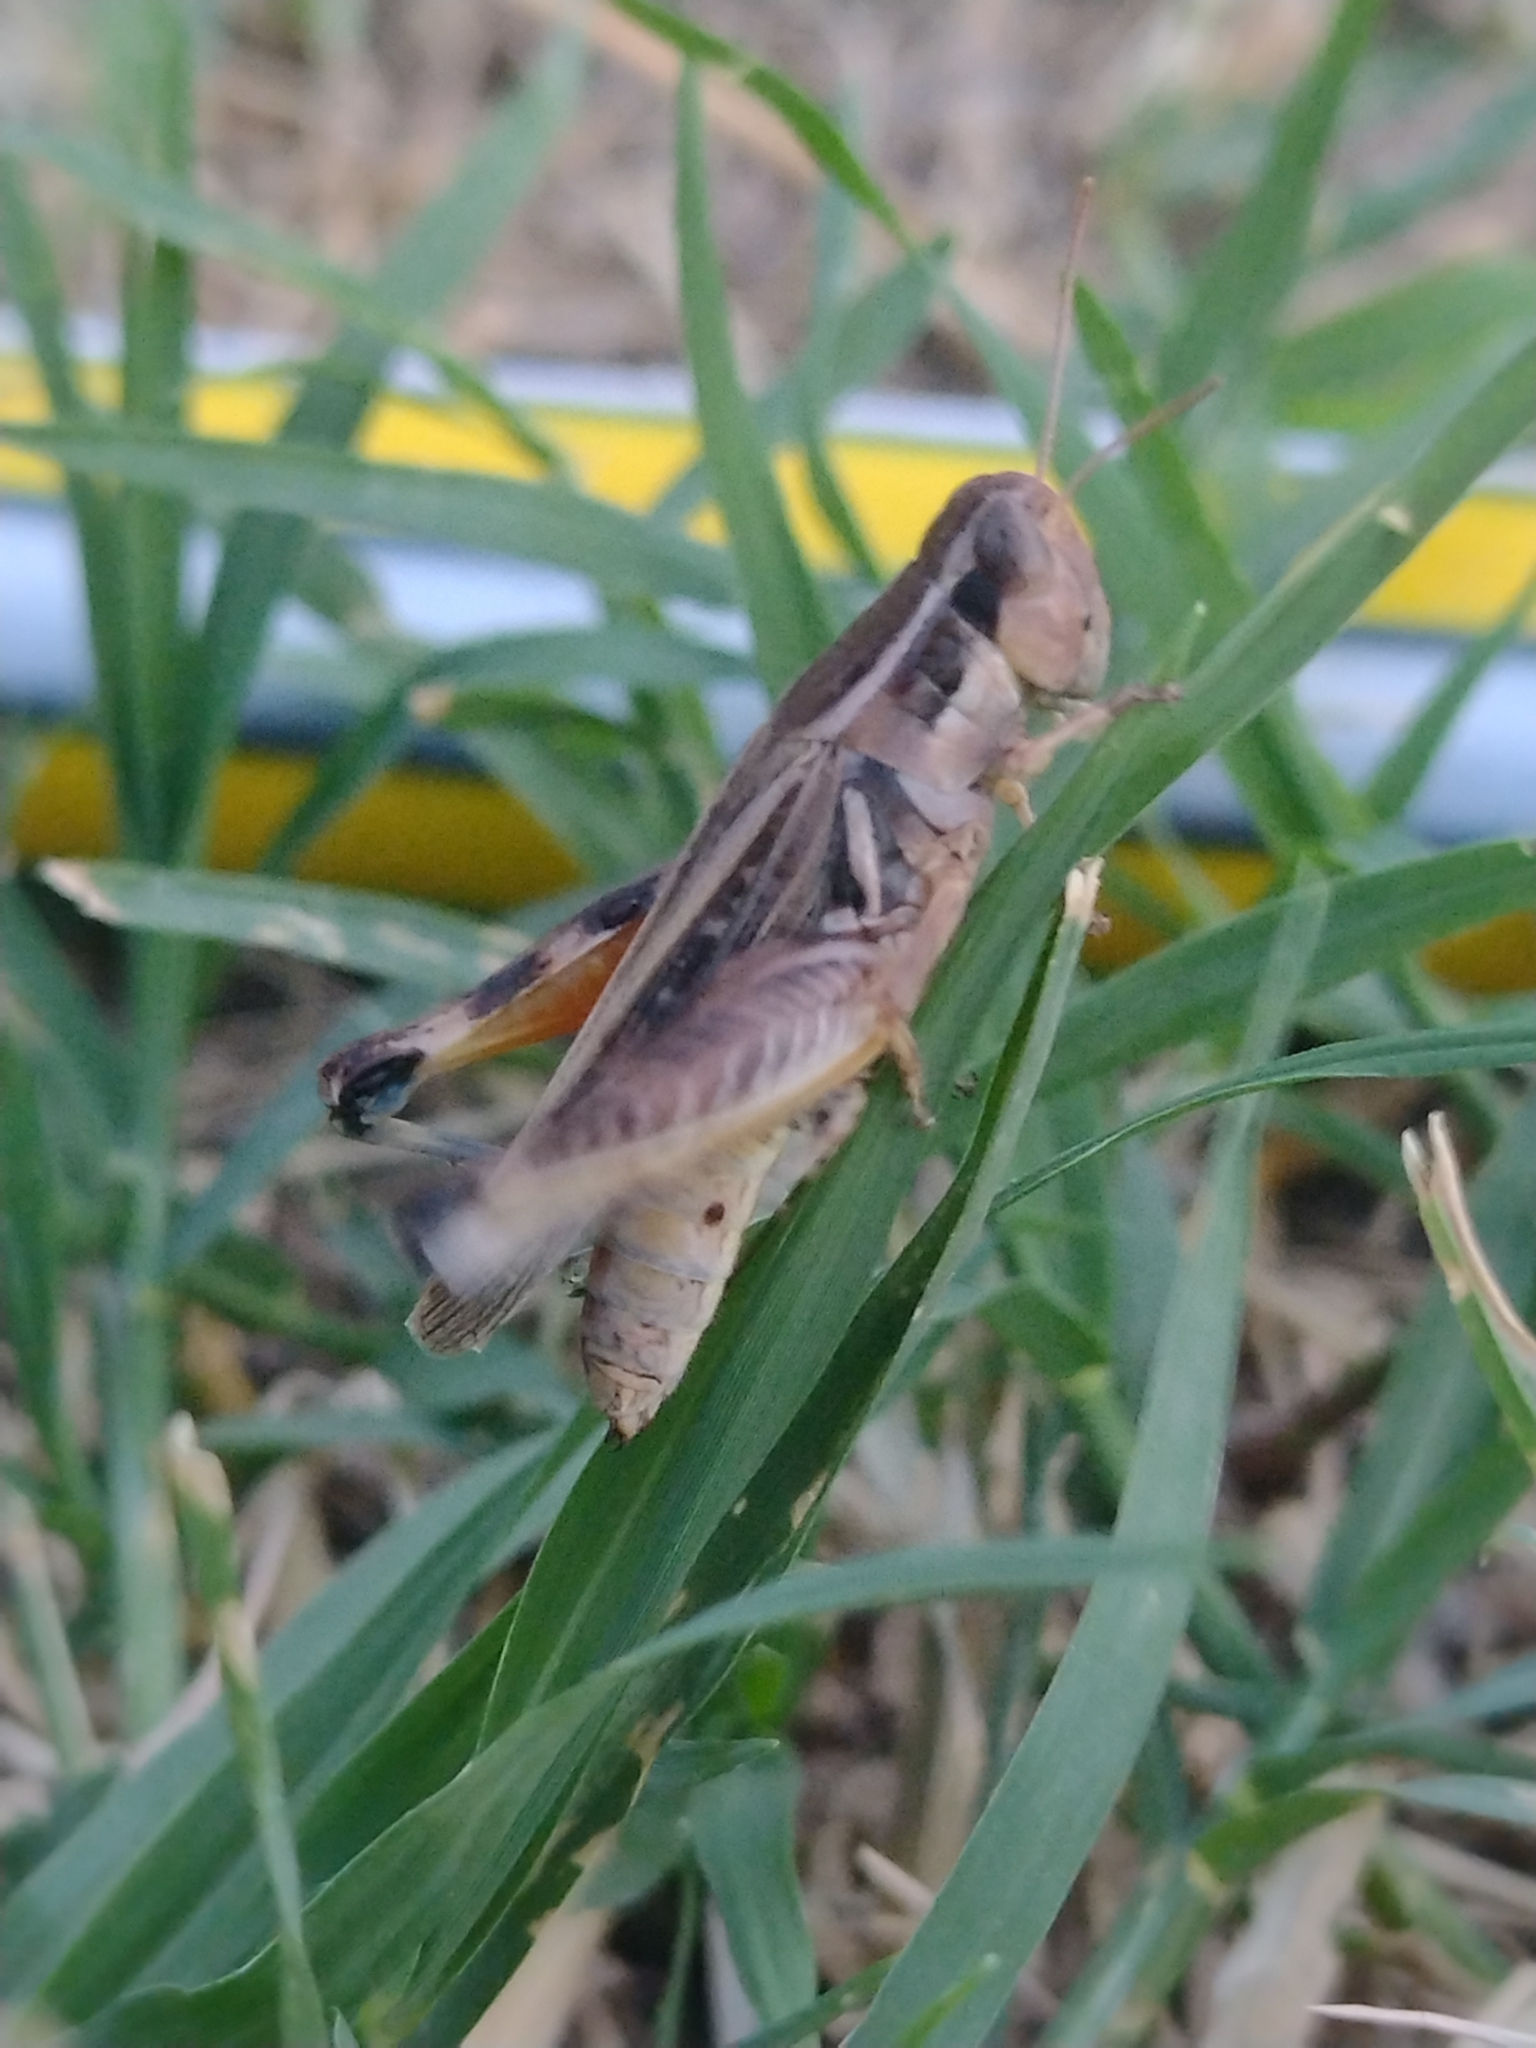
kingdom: Animalia
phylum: Arthropoda
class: Insecta
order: Orthoptera
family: Acrididae
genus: Dichroplus
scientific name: Dichroplus pratensis
